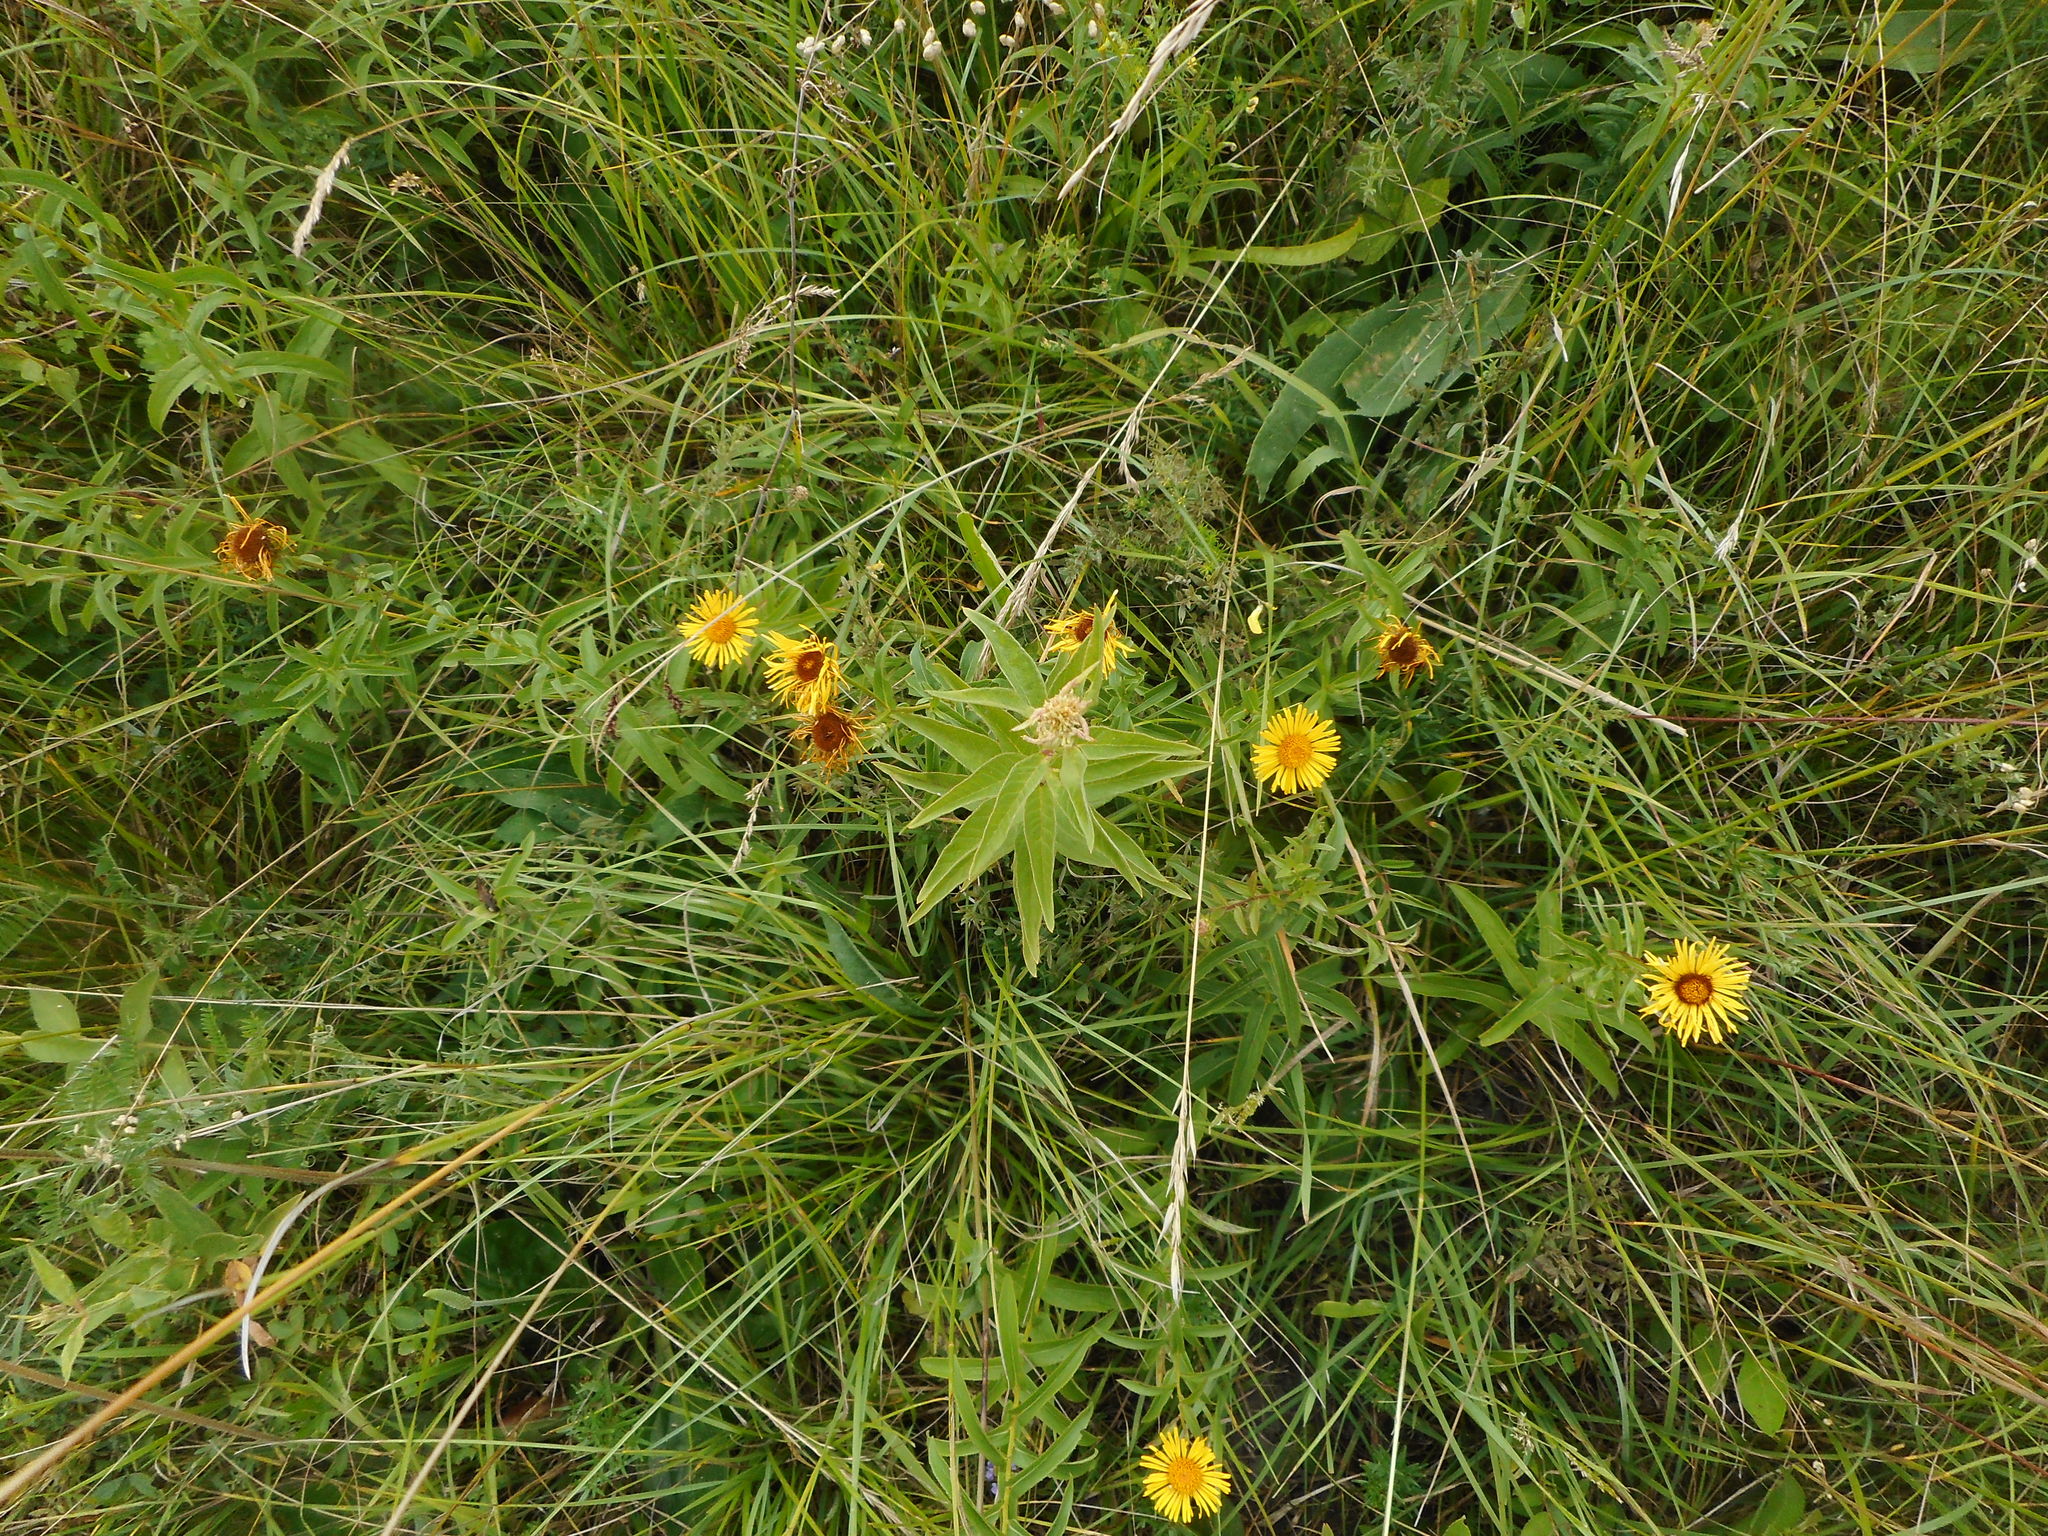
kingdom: Plantae
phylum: Tracheophyta
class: Magnoliopsida
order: Asterales
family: Asteraceae
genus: Pentanema
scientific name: Pentanema salicinum
